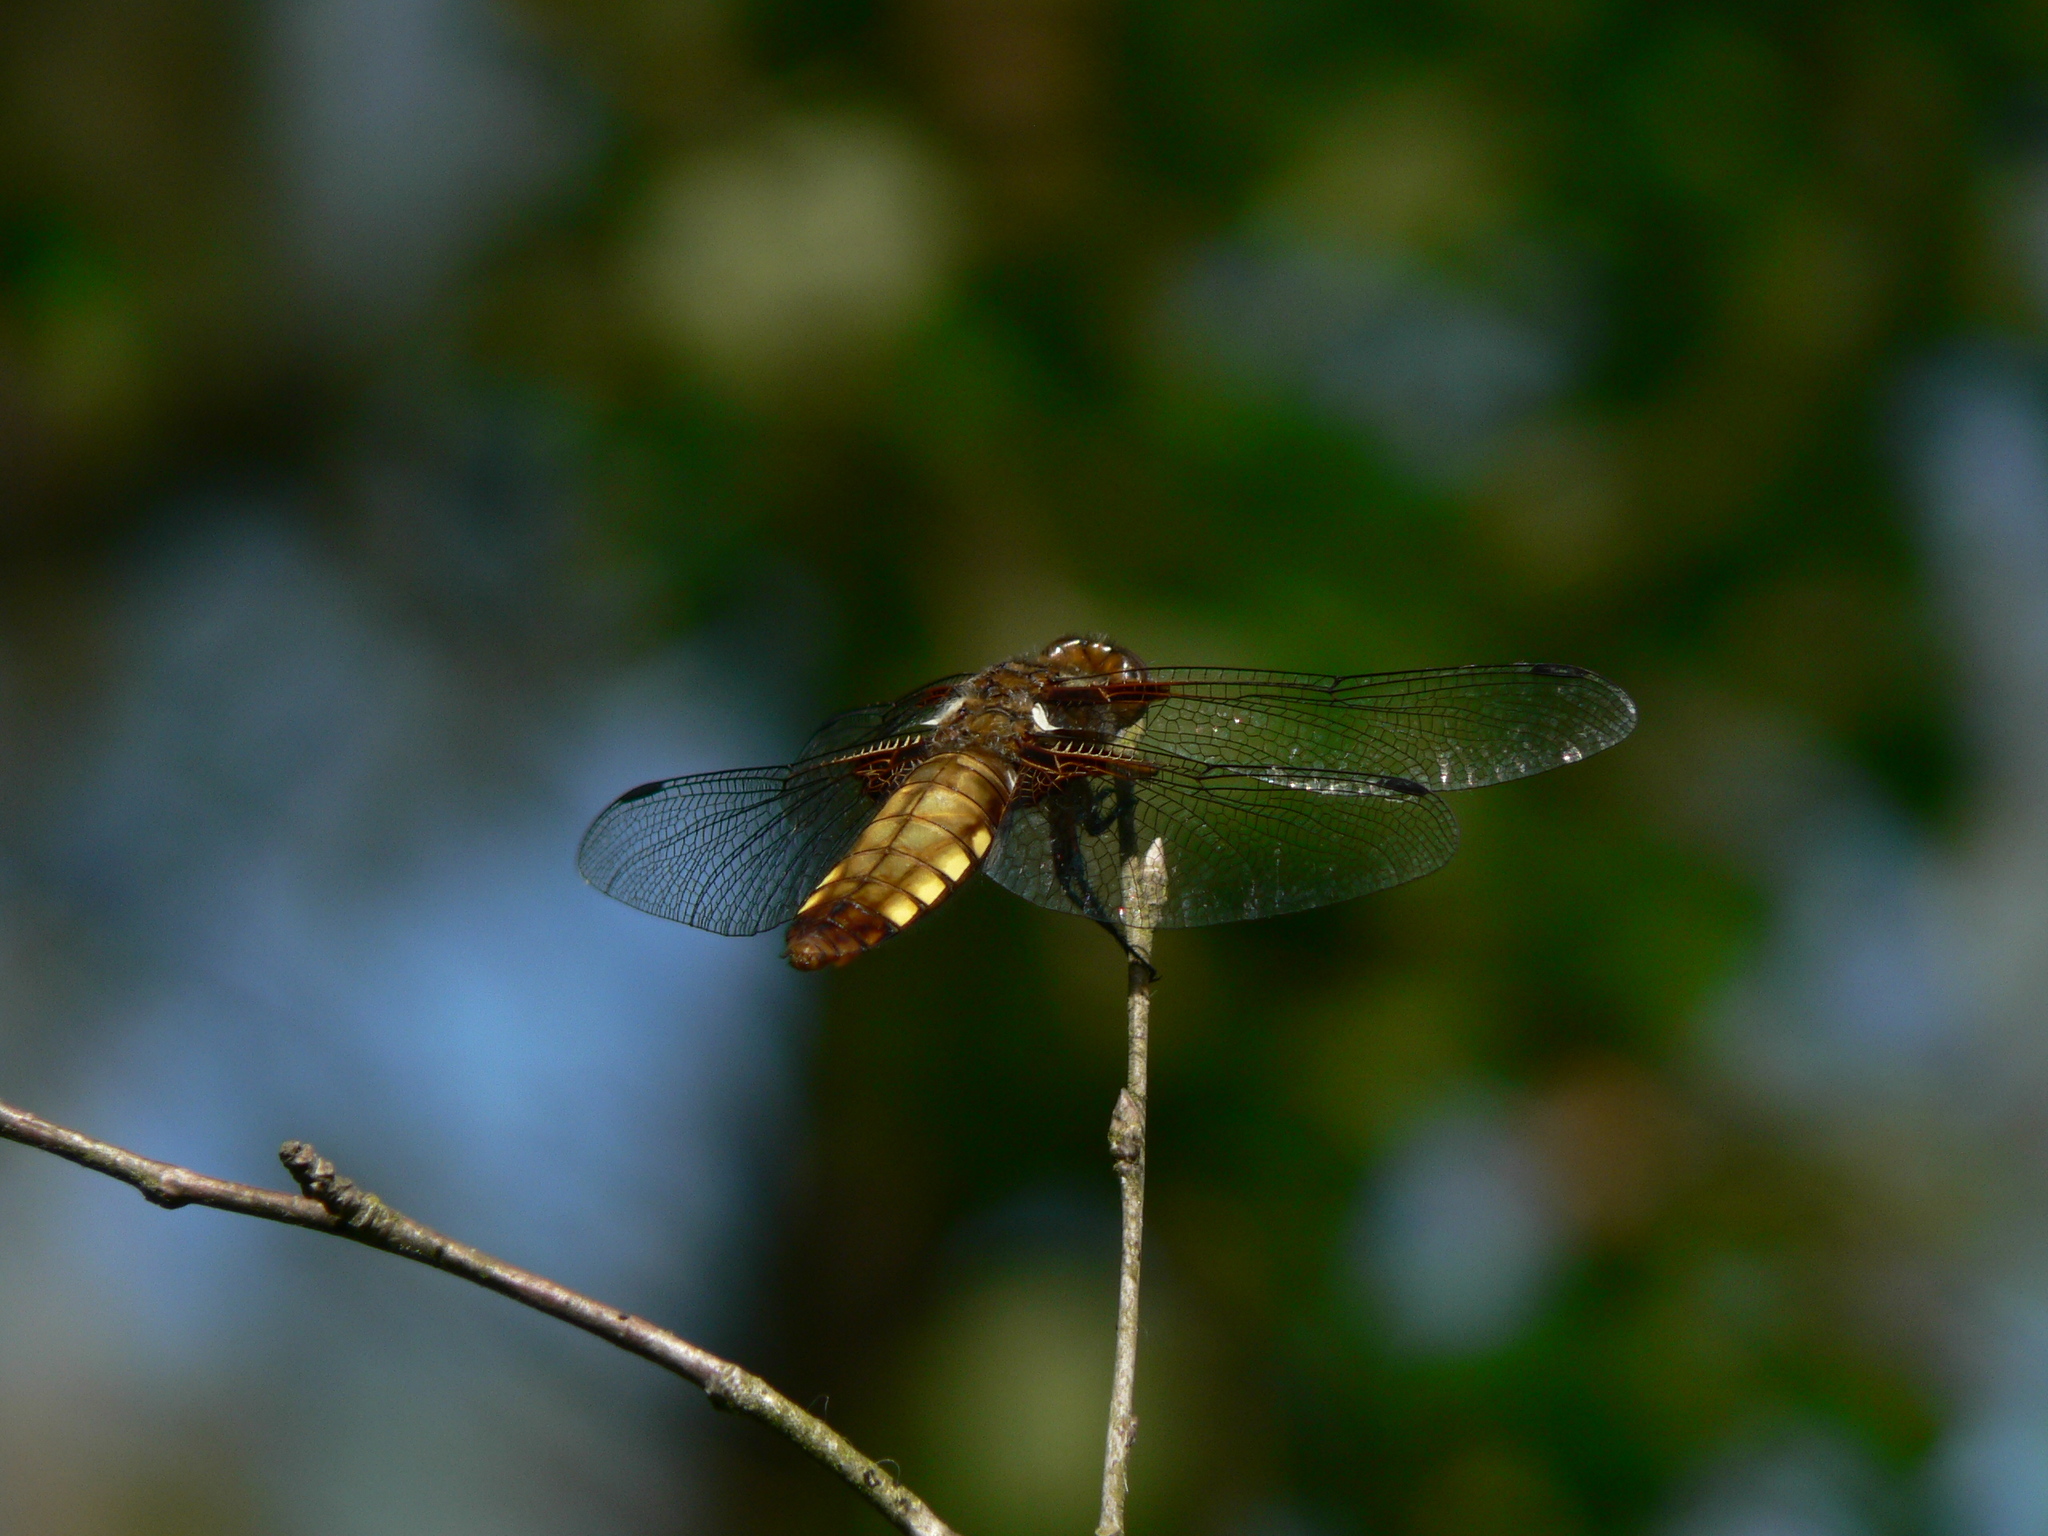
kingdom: Animalia
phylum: Arthropoda
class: Insecta
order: Odonata
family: Libellulidae
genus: Libellula
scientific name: Libellula depressa
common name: Broad-bodied chaser
